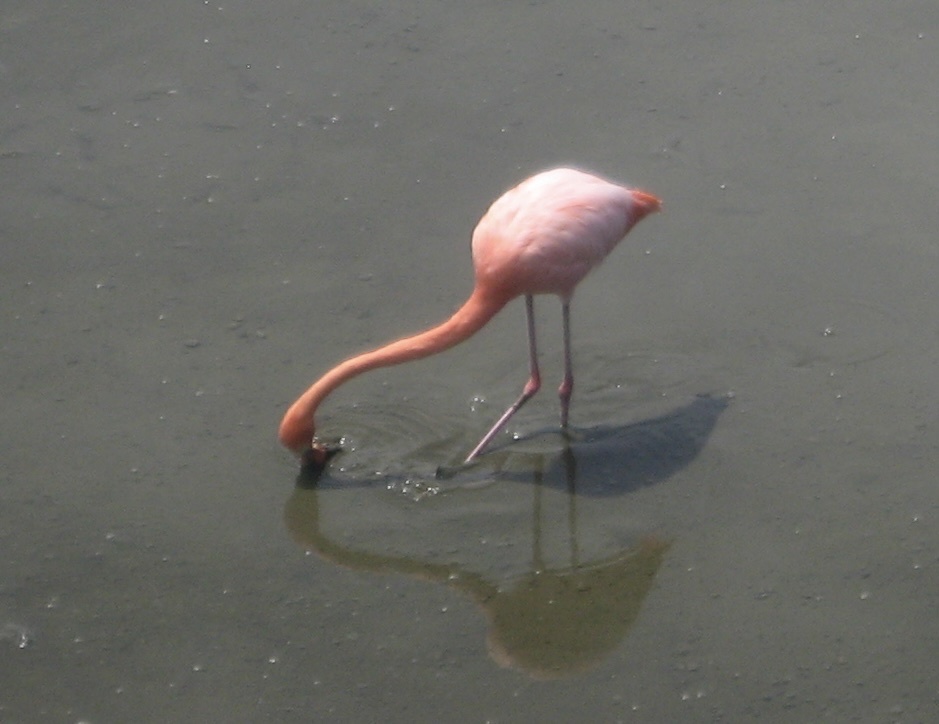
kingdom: Animalia
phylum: Chordata
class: Aves
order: Phoenicopteriformes
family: Phoenicopteridae
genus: Phoenicopterus
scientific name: Phoenicopterus ruber
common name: American flamingo
